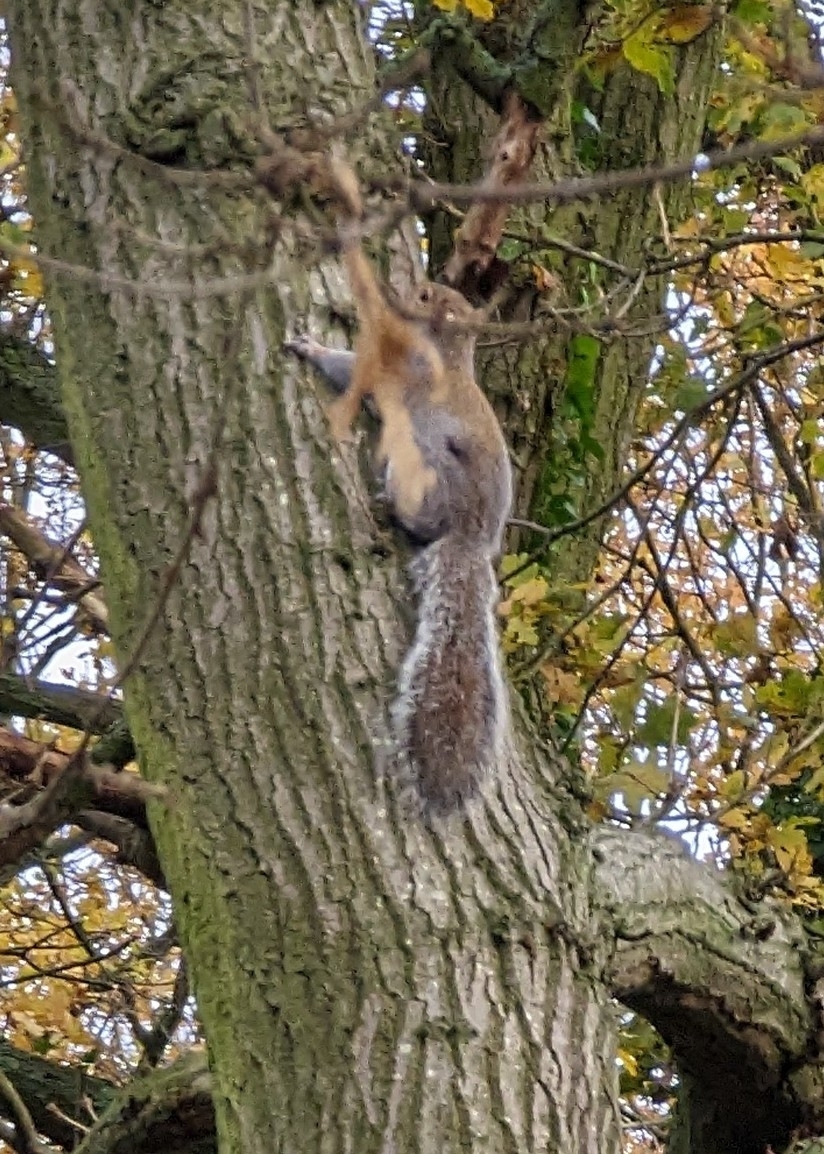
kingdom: Animalia
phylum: Chordata
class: Mammalia
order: Rodentia
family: Sciuridae
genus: Sciurus
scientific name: Sciurus carolinensis
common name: Eastern gray squirrel
